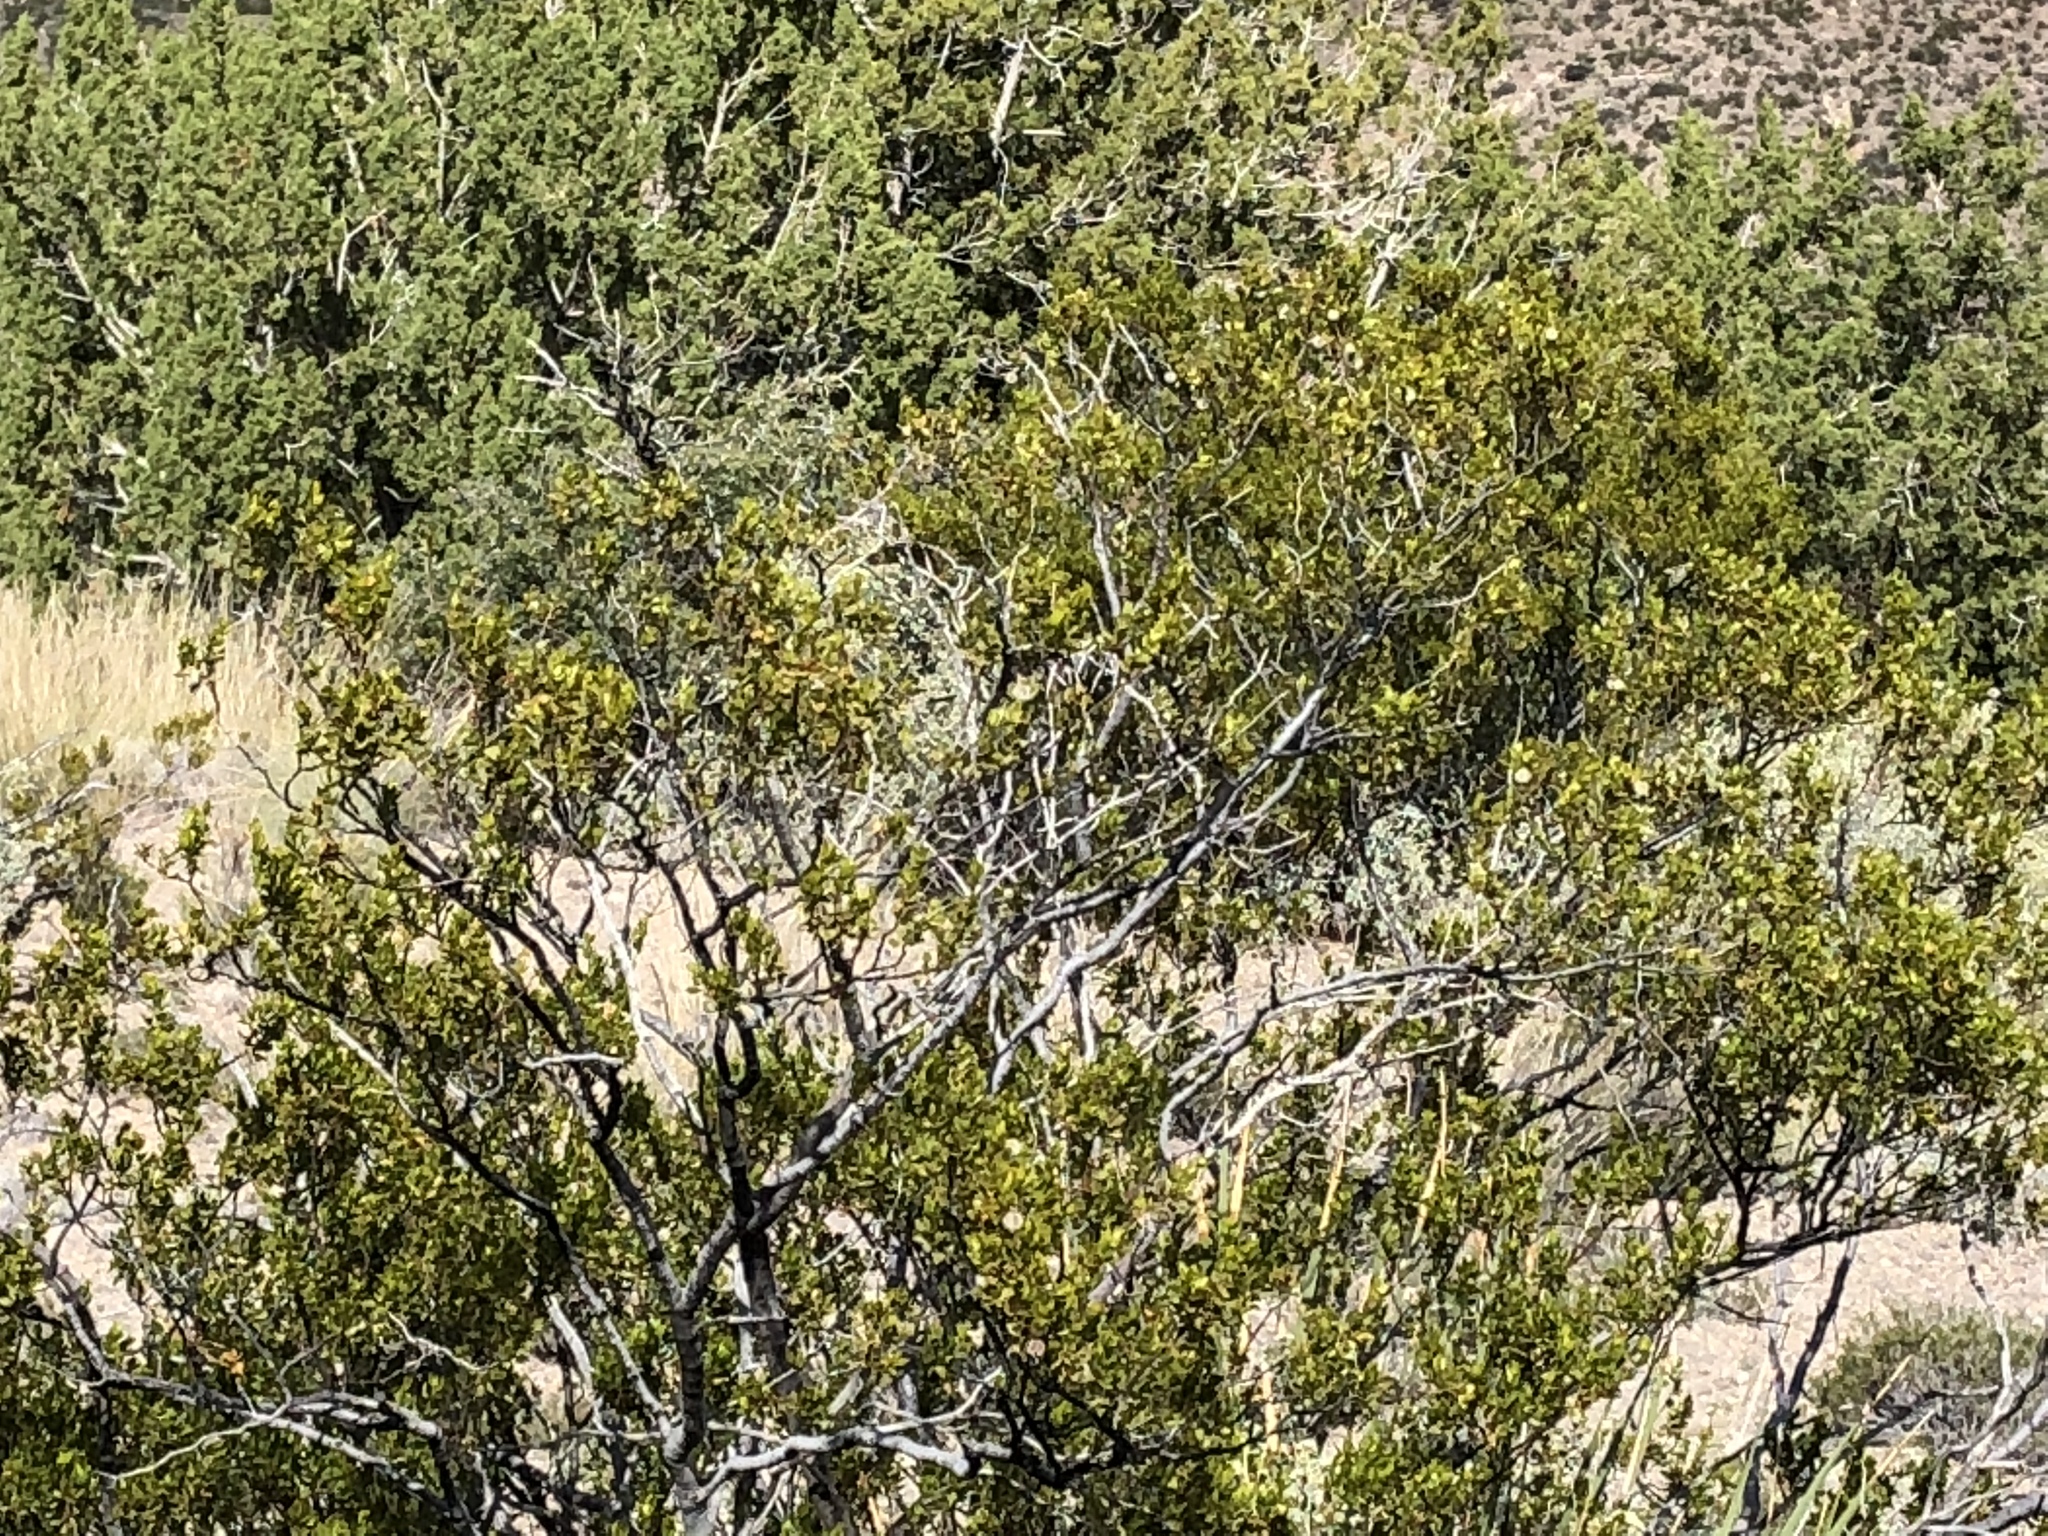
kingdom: Plantae
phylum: Tracheophyta
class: Magnoliopsida
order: Zygophyllales
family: Zygophyllaceae
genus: Larrea
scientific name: Larrea tridentata
